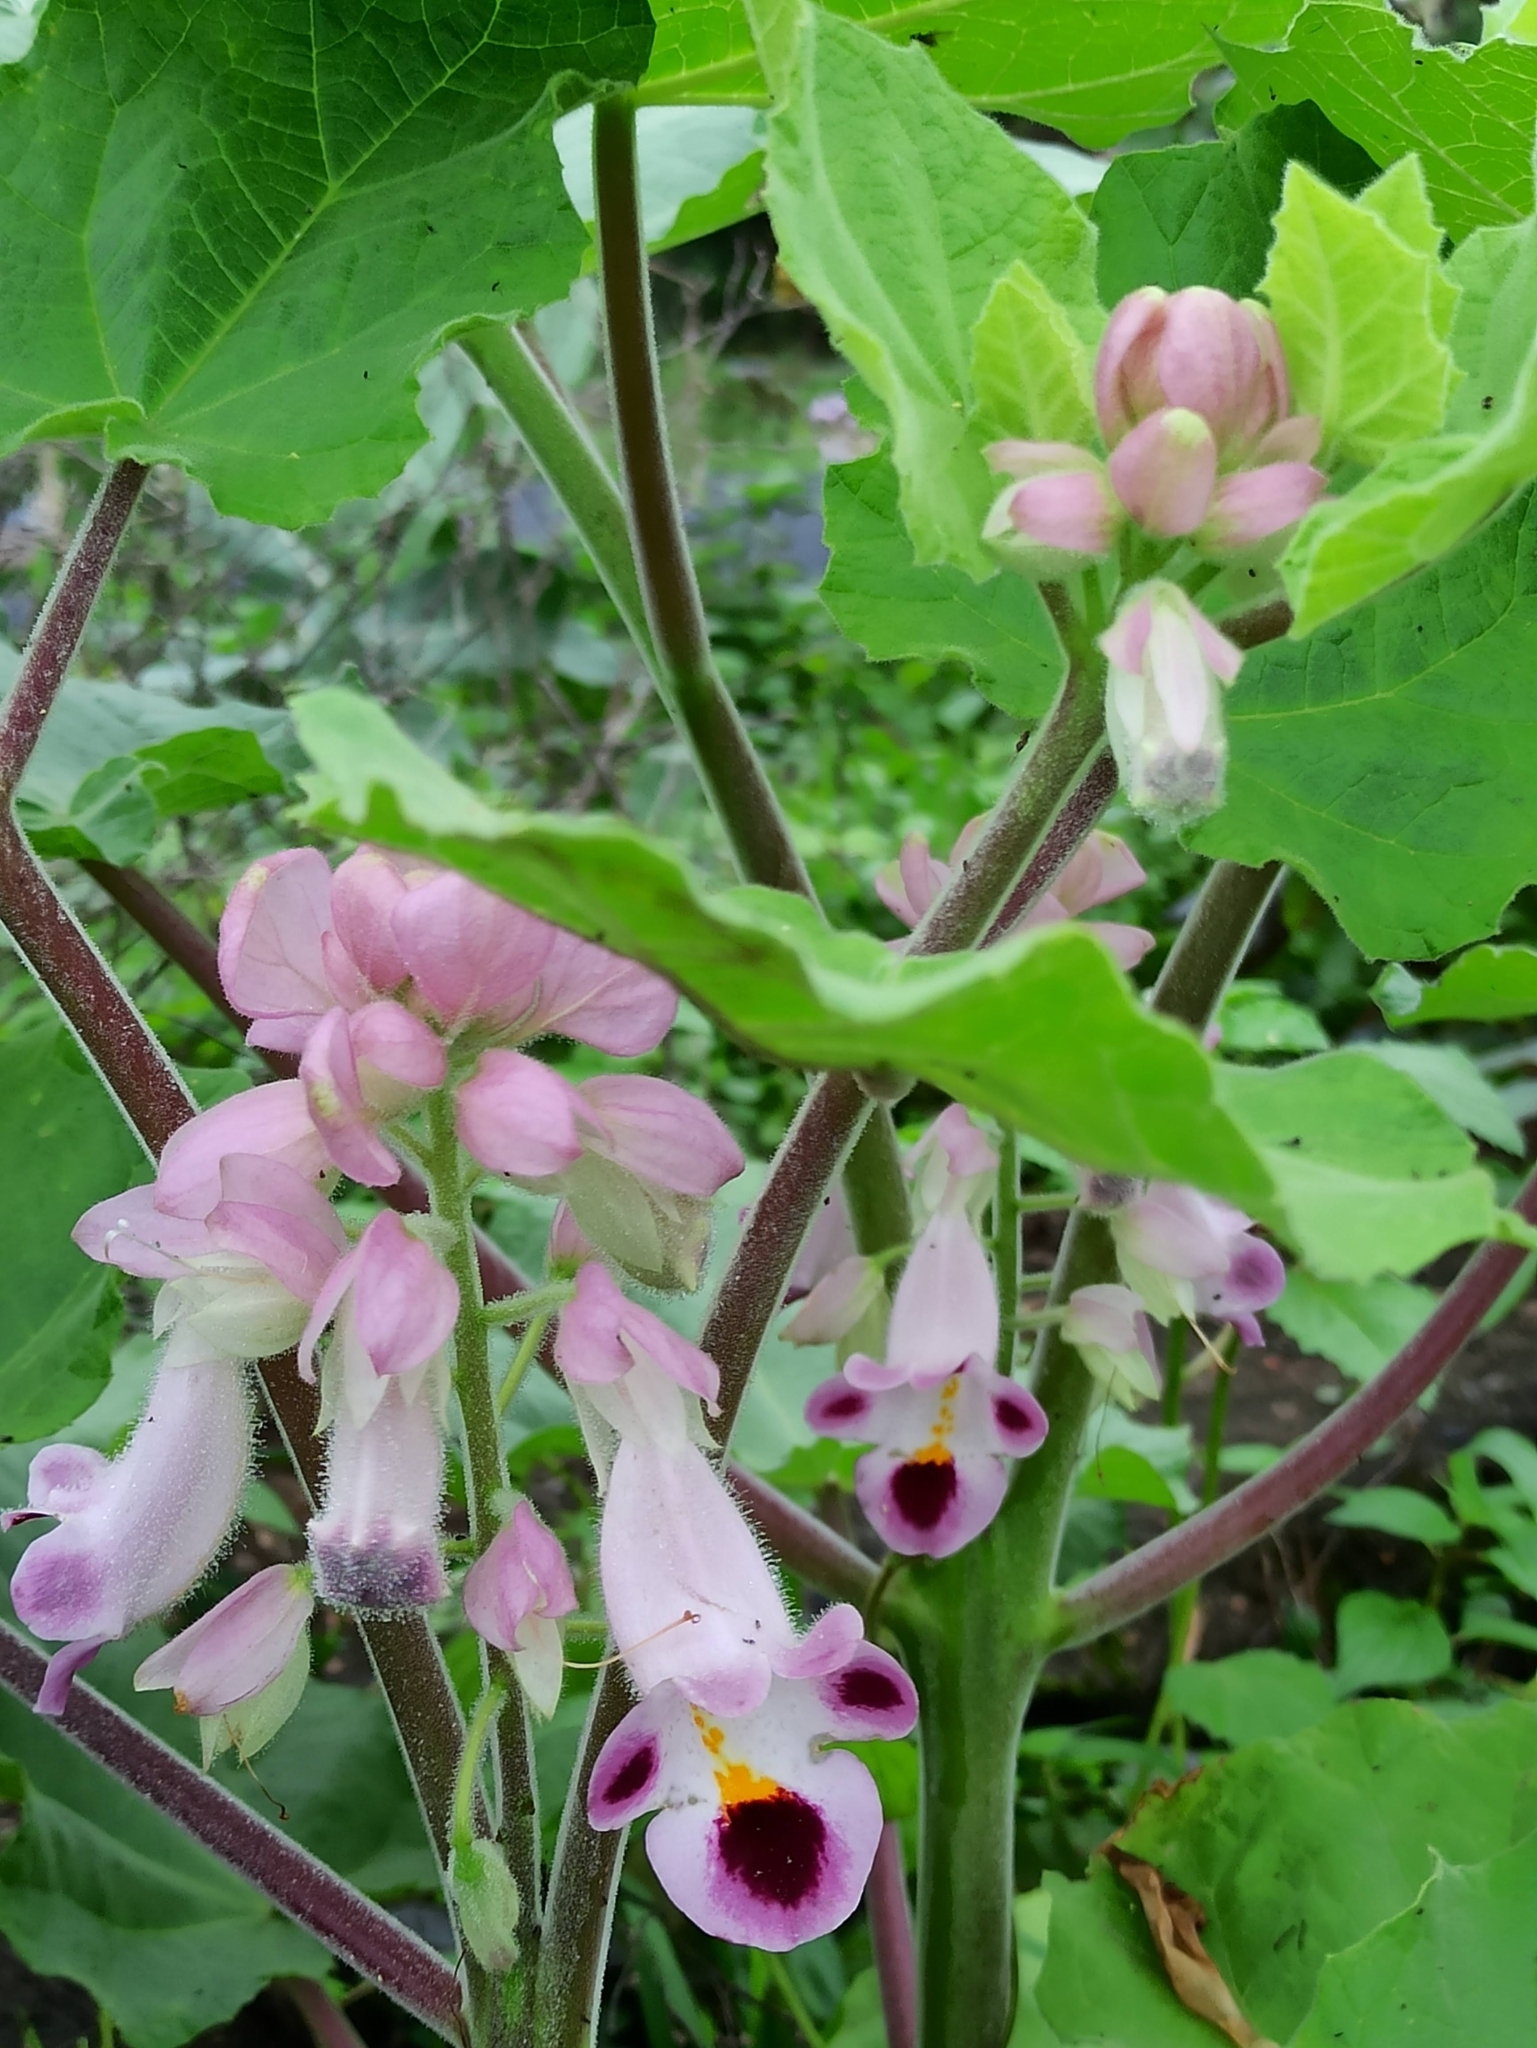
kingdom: Plantae
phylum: Tracheophyta
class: Magnoliopsida
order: Lamiales
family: Martyniaceae
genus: Martynia
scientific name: Martynia annua
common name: Tiger's-claw
